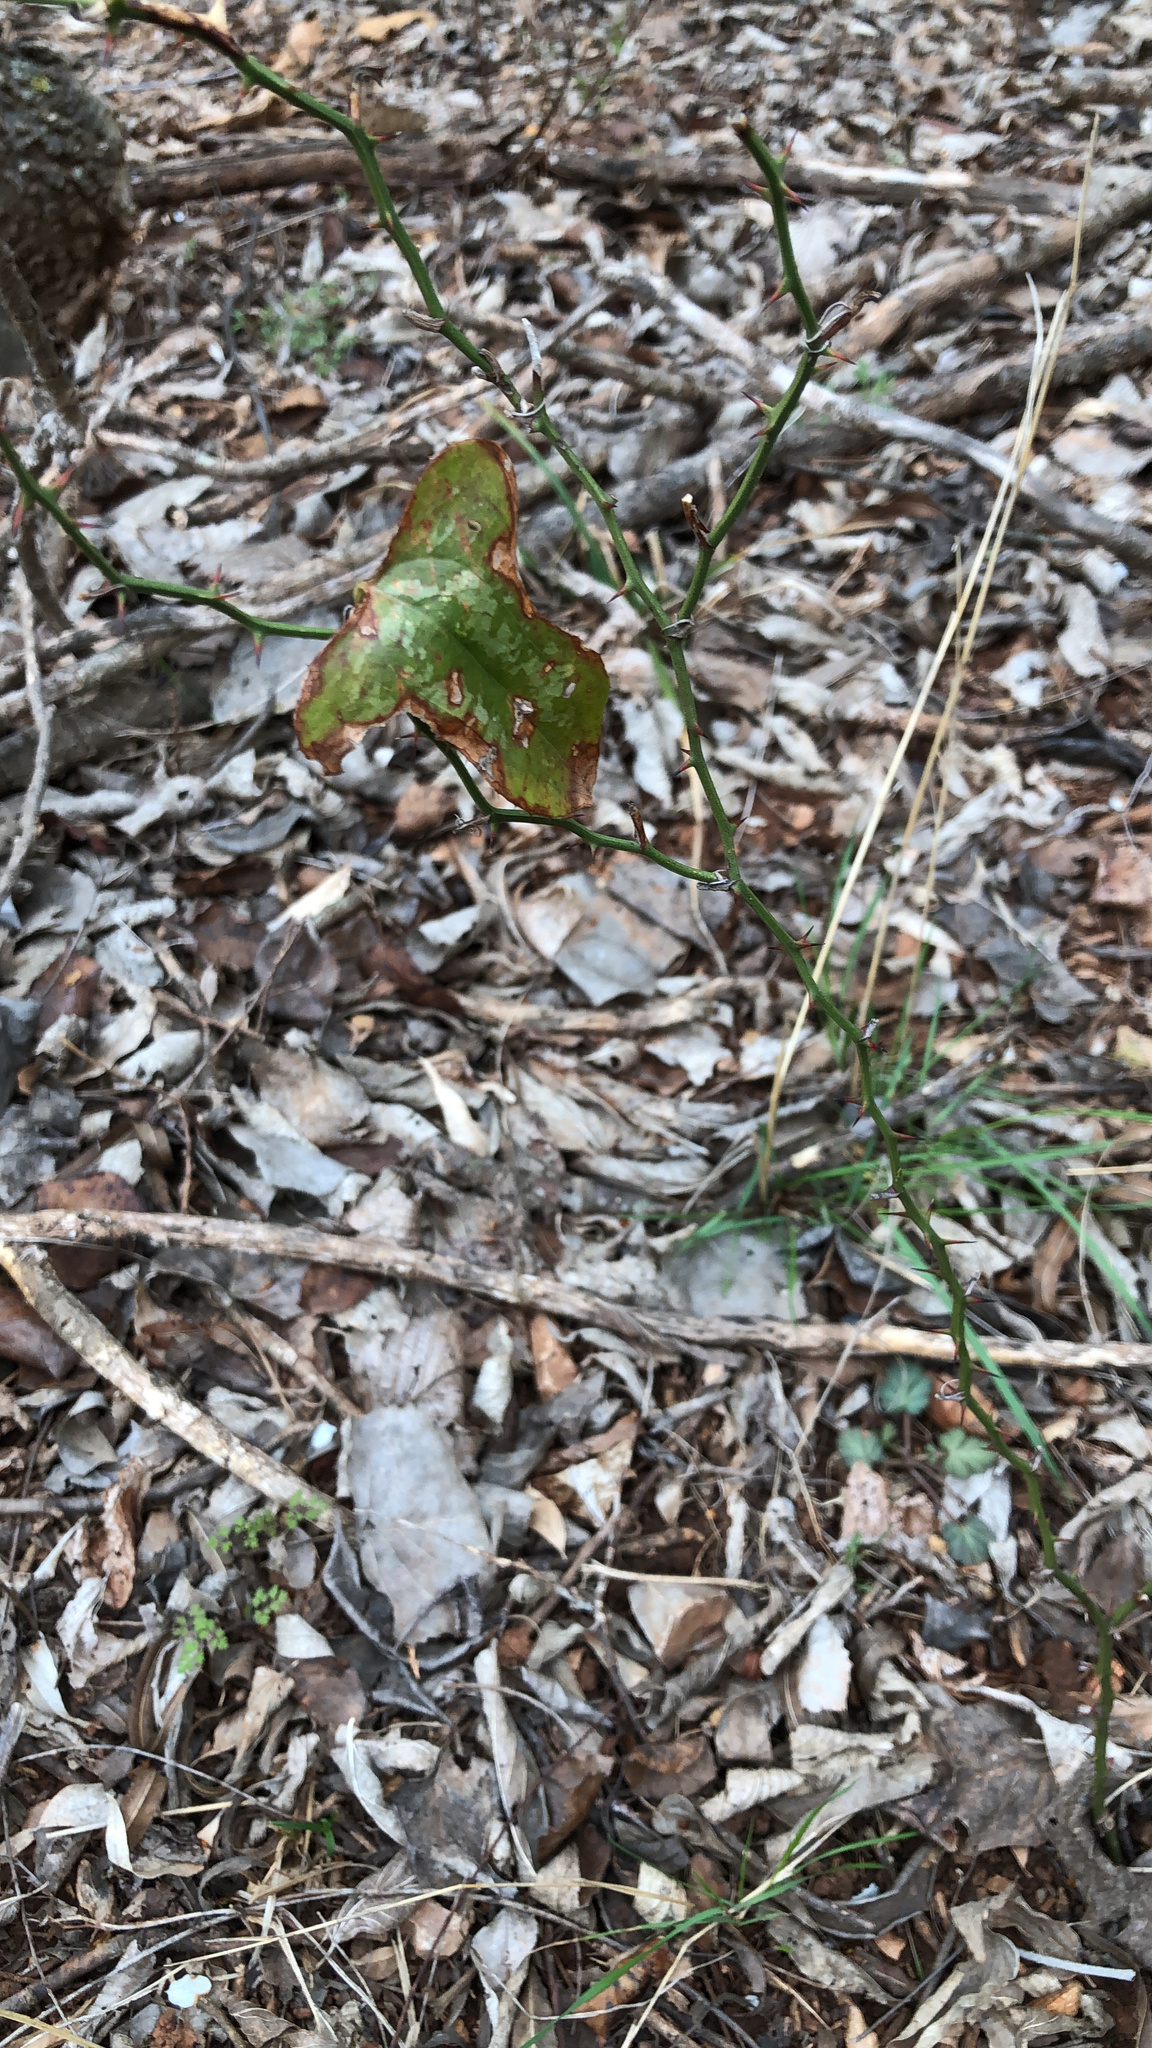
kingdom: Plantae
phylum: Tracheophyta
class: Liliopsida
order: Liliales
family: Smilacaceae
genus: Smilax
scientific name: Smilax bona-nox
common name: Catbrier
